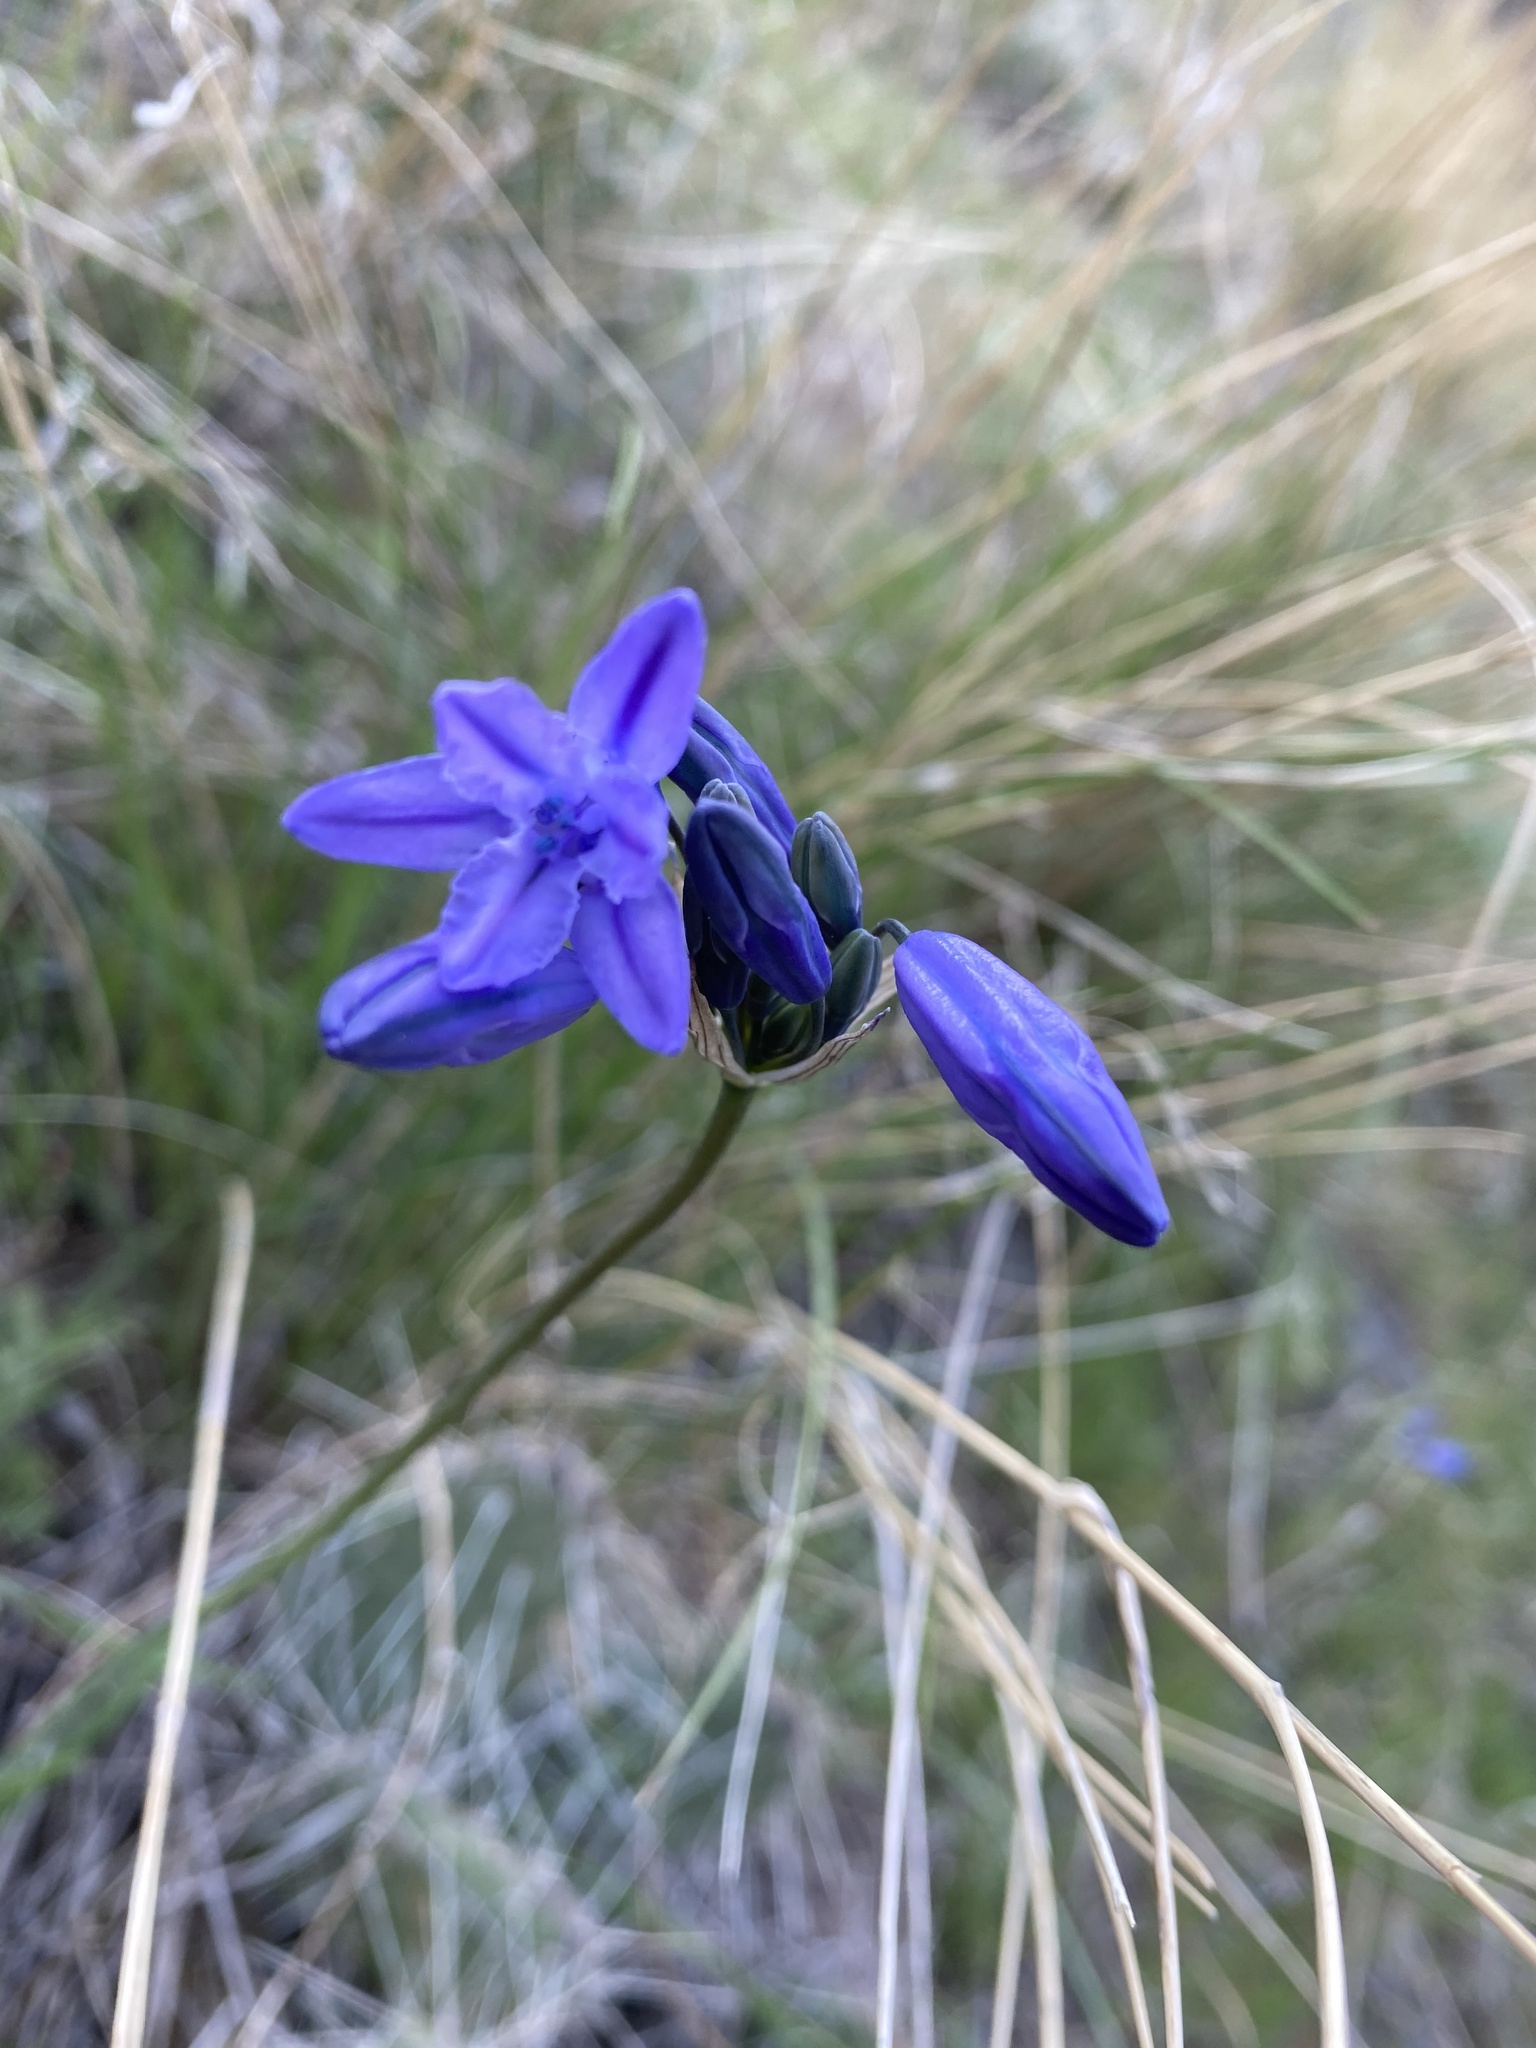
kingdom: Plantae
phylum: Tracheophyta
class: Liliopsida
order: Asparagales
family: Asparagaceae
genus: Triteleia
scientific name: Triteleia grandiflora
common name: Wild hyacinth
